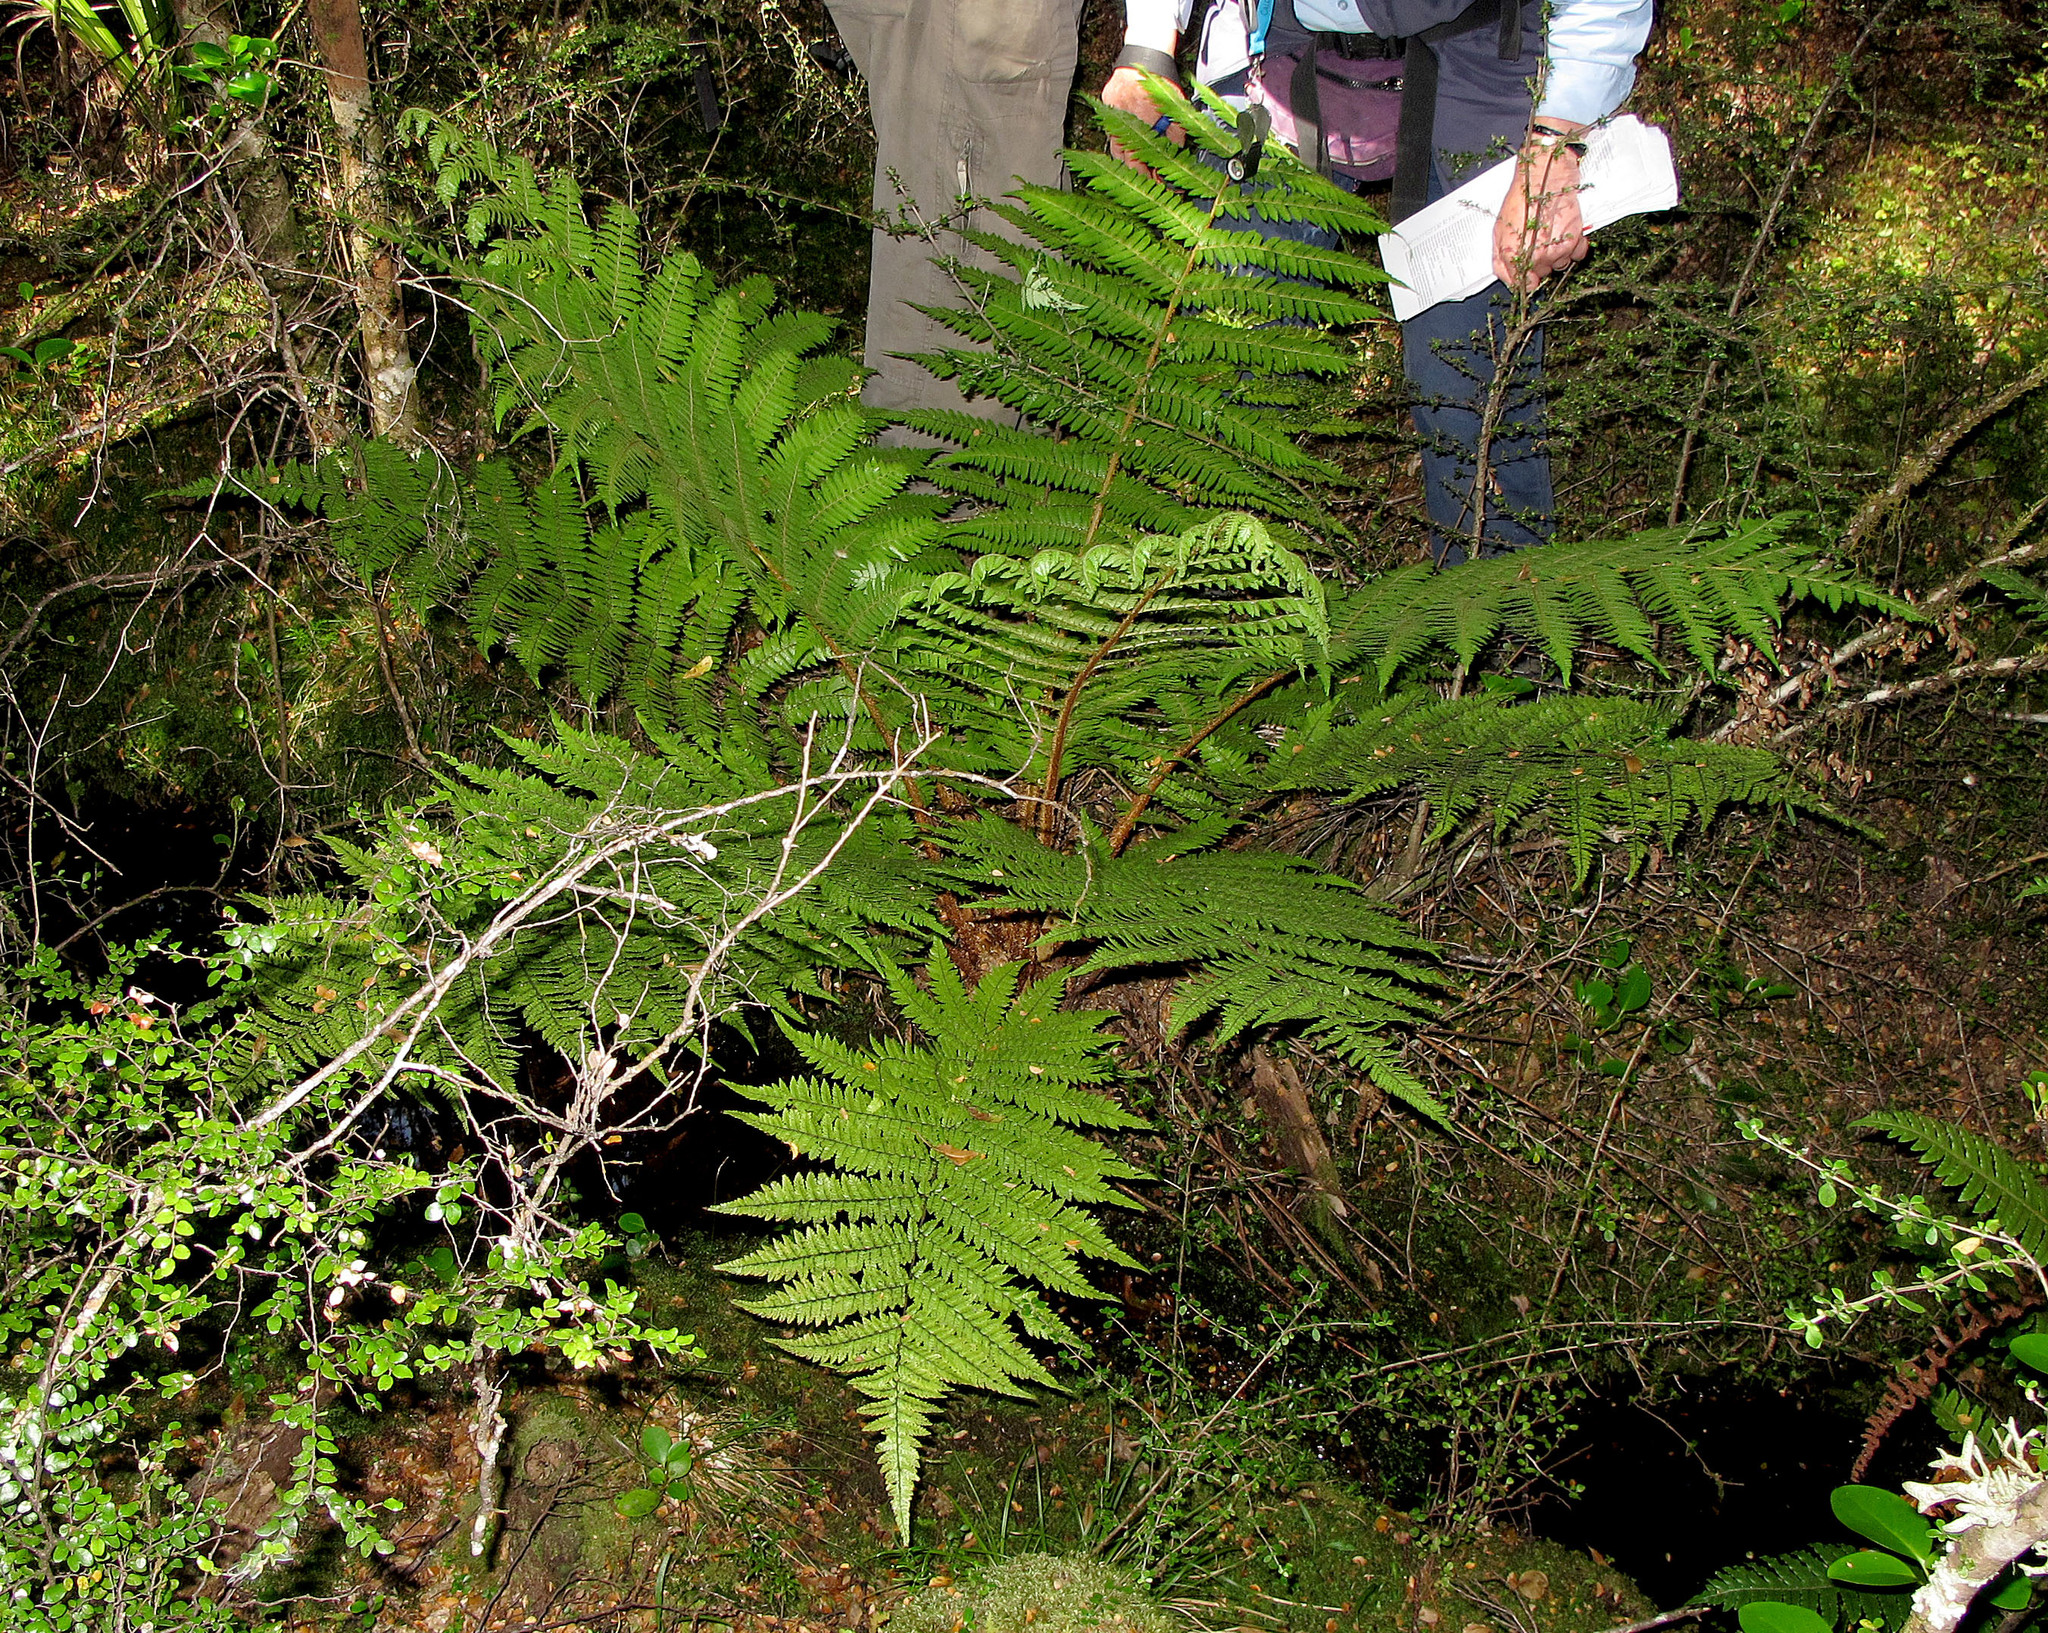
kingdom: Plantae
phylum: Tracheophyta
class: Polypodiopsida
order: Cyatheales
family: Cyatheaceae
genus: Alsophila
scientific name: Alsophila smithii
